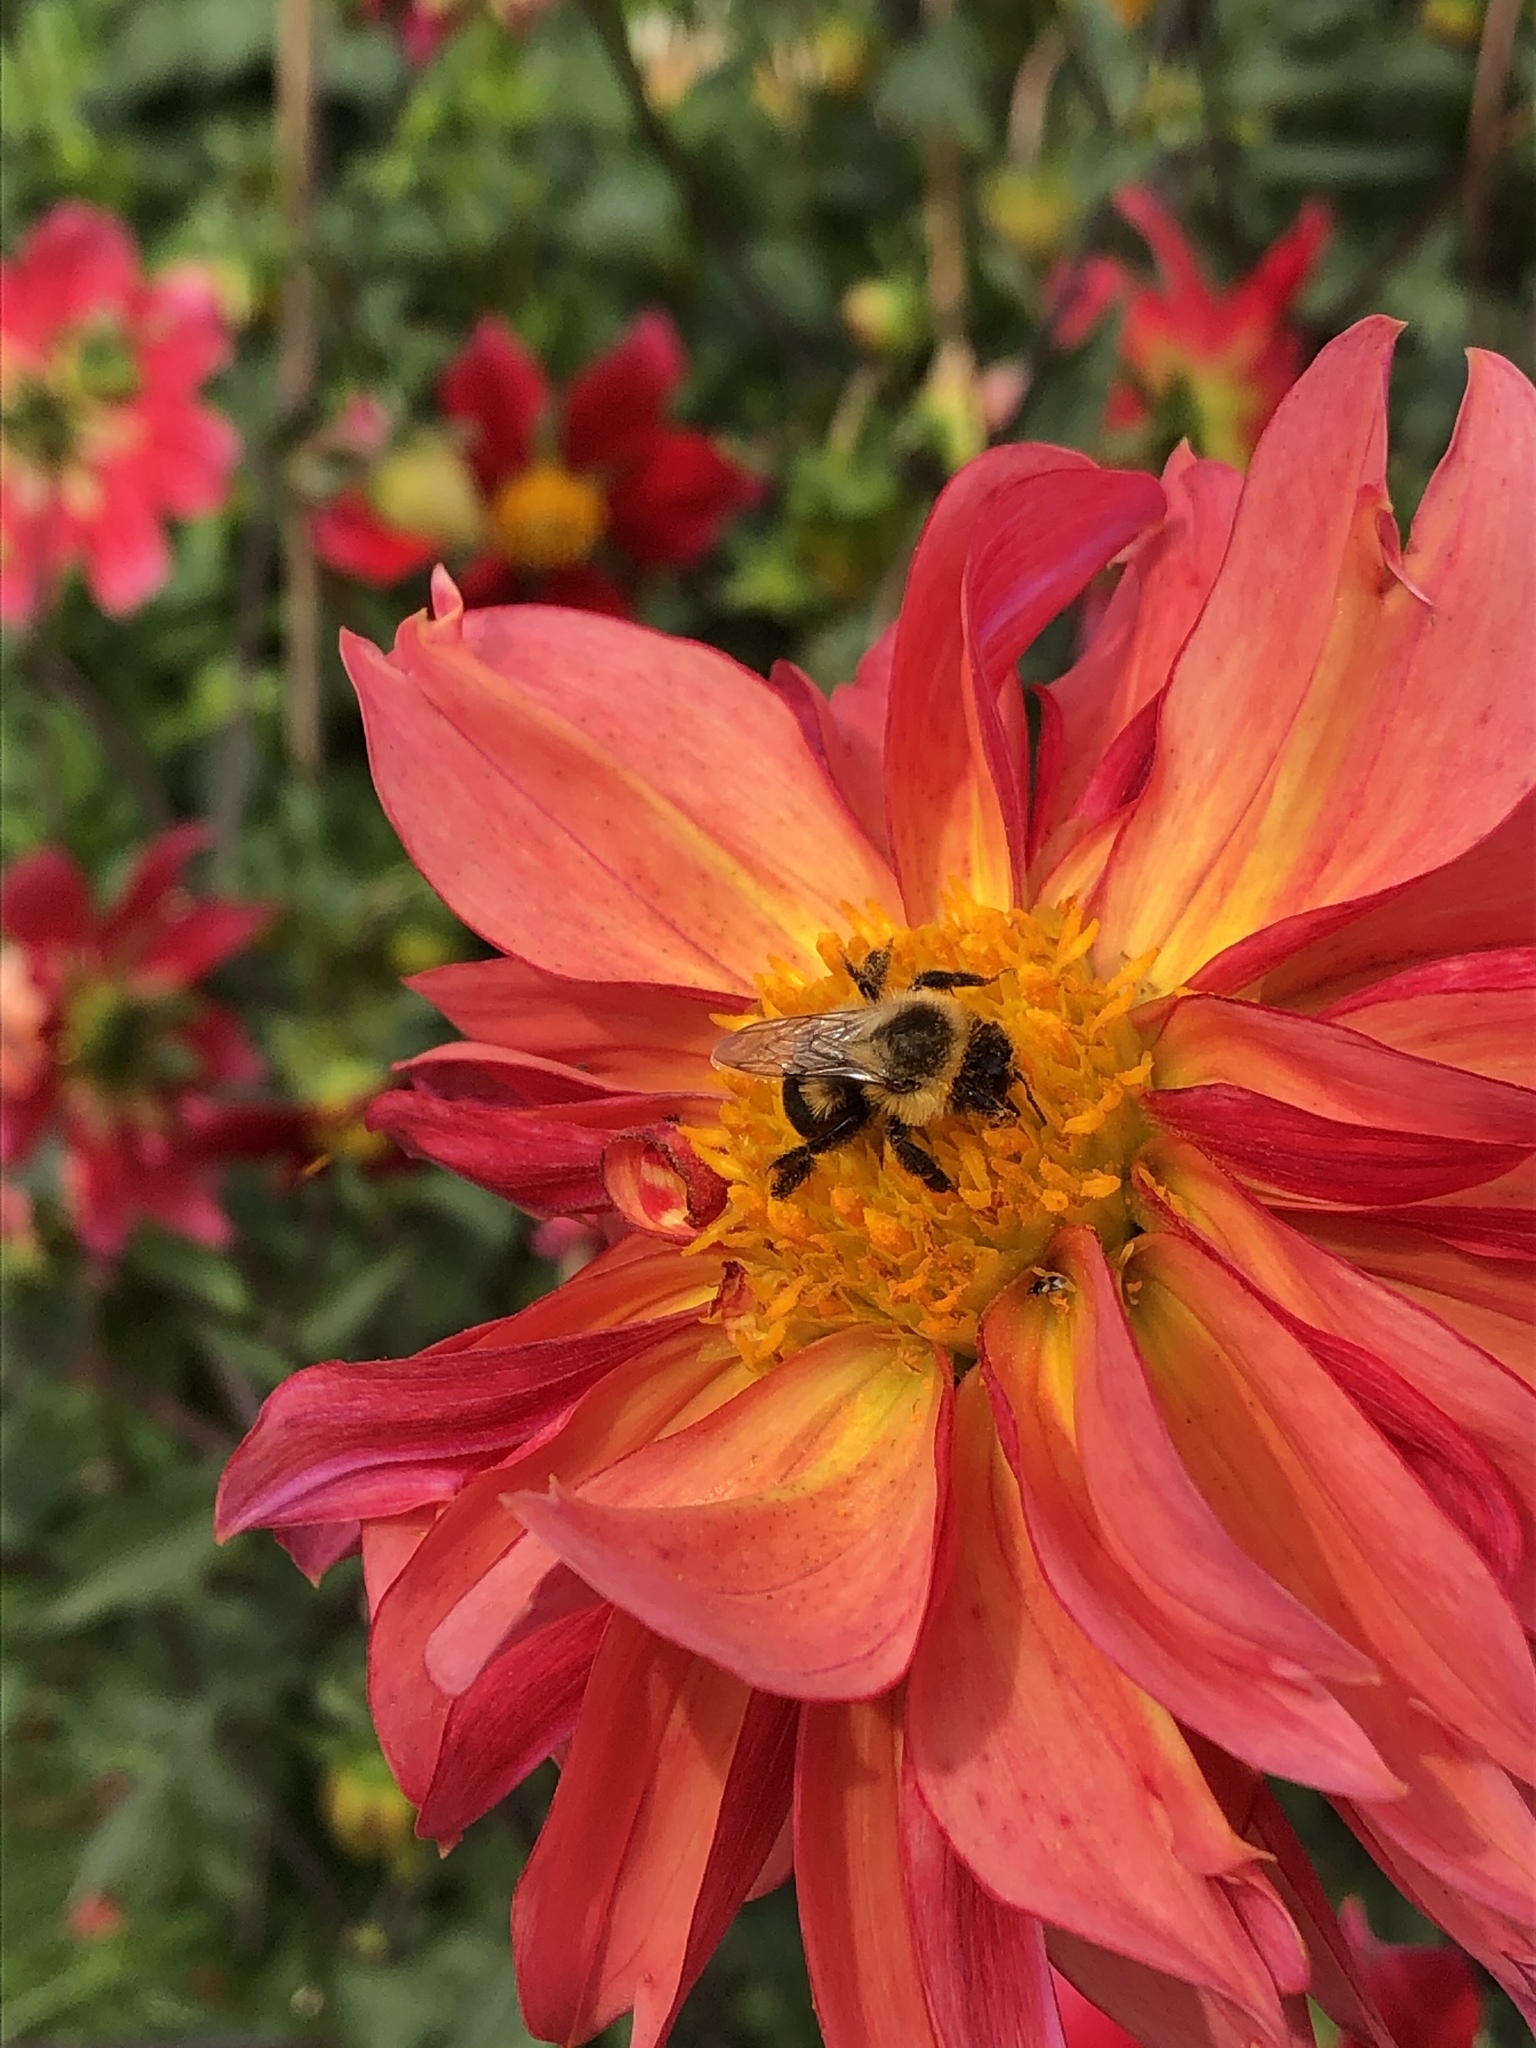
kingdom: Animalia
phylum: Arthropoda
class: Insecta
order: Hymenoptera
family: Apidae
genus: Bombus
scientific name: Bombus impatiens
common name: Common eastern bumble bee
